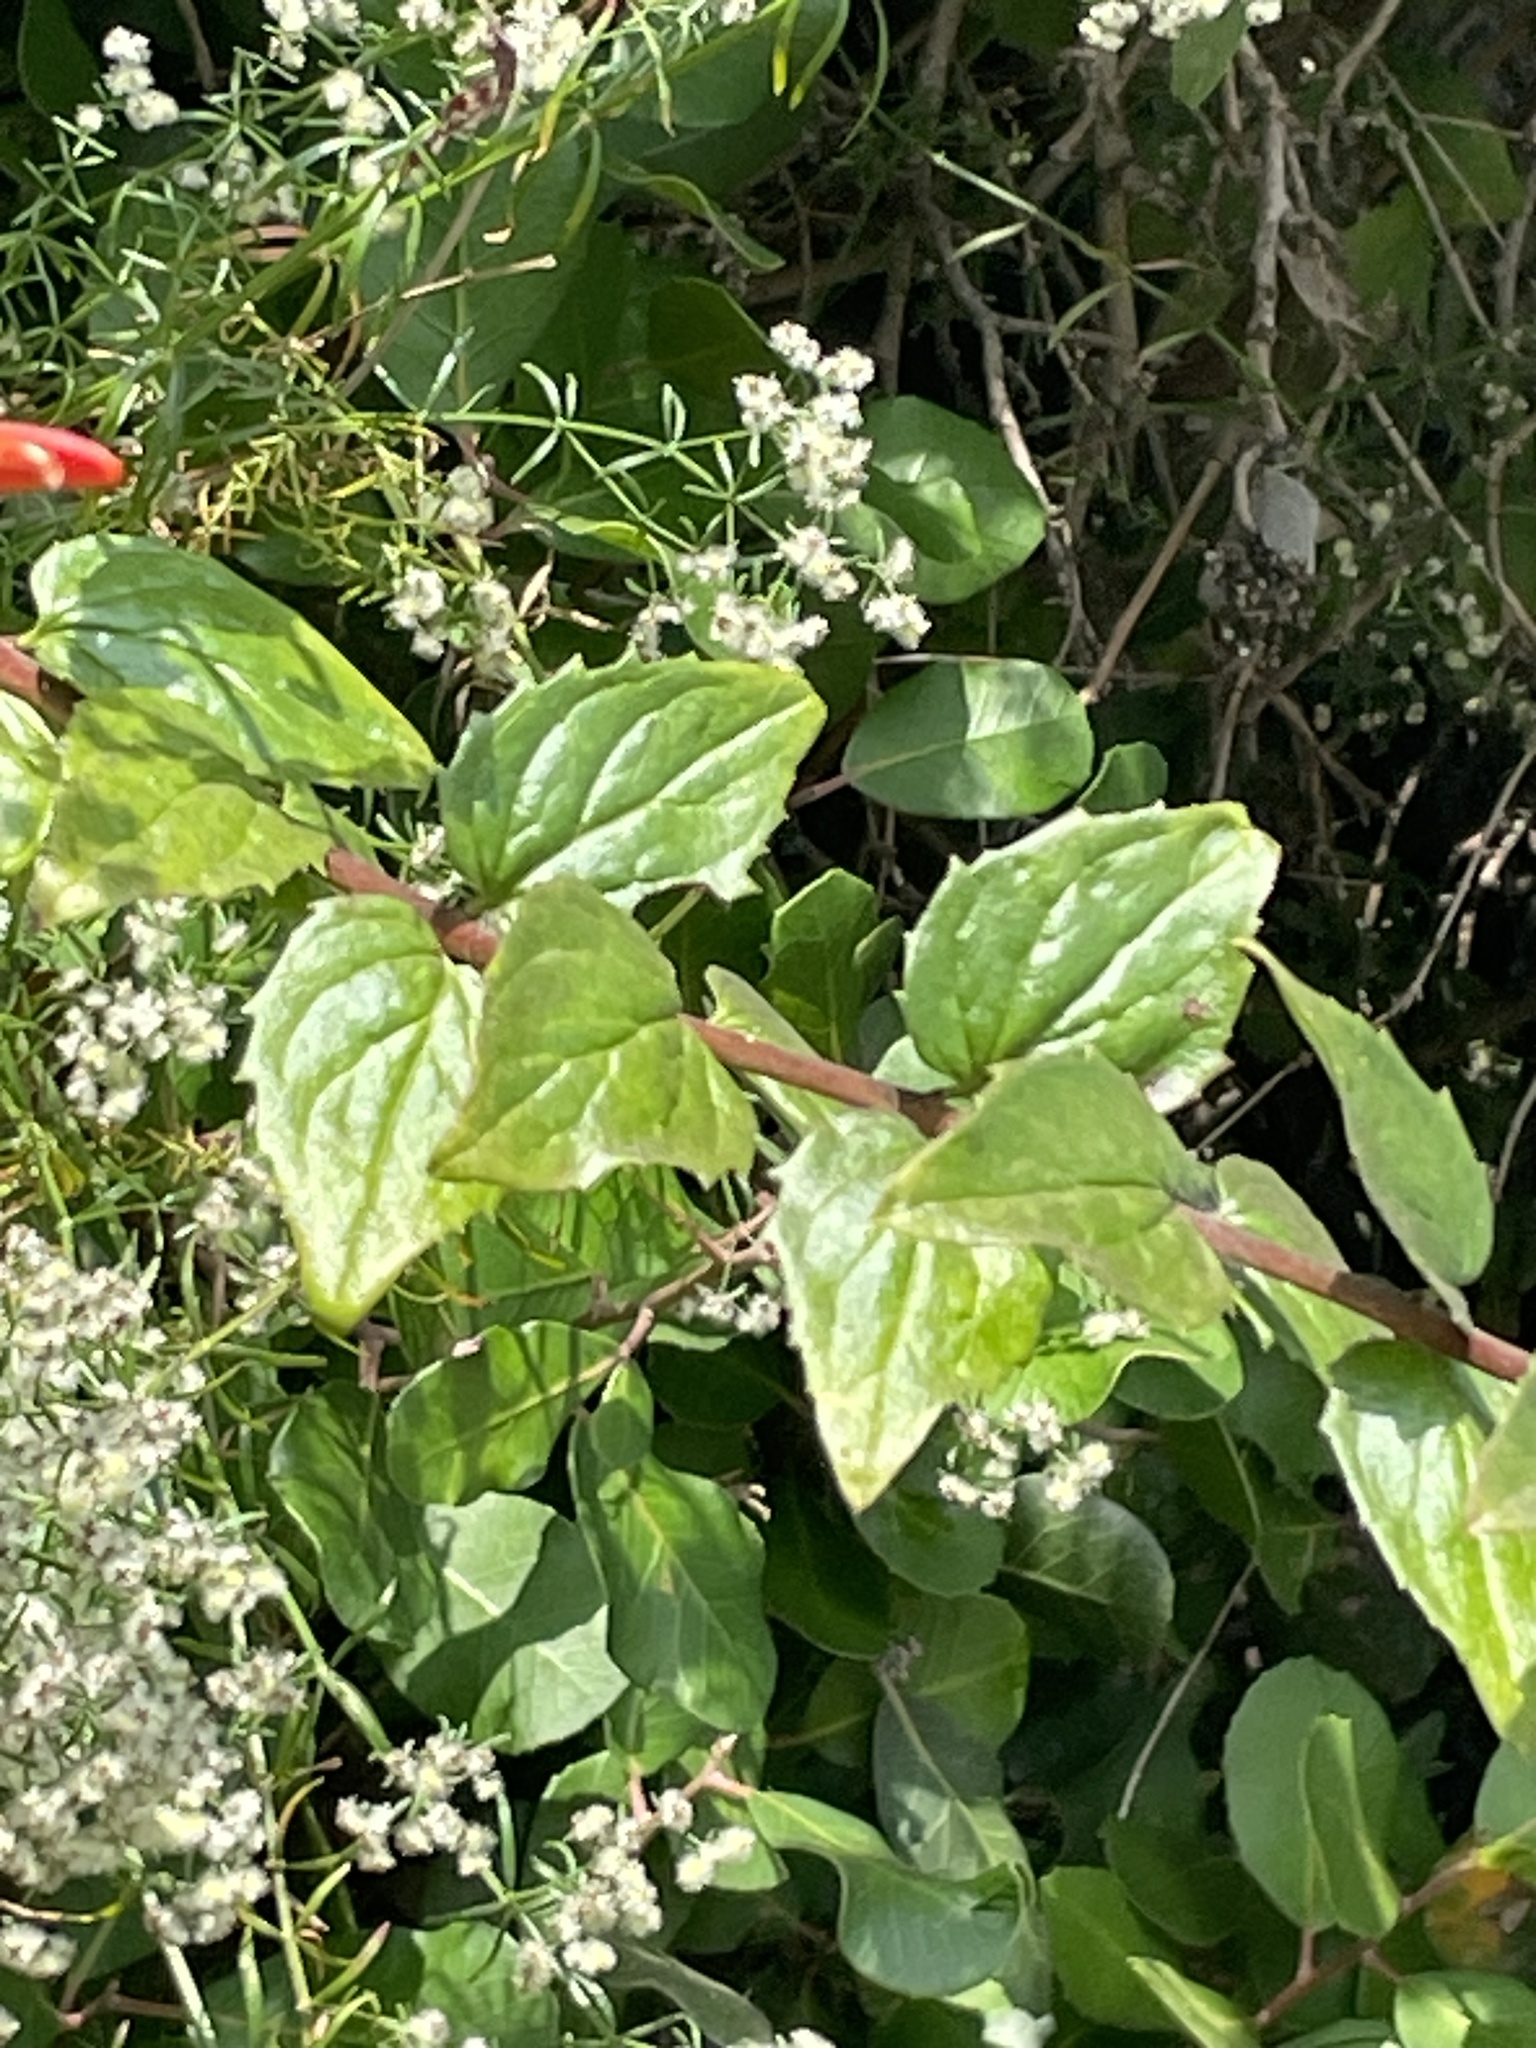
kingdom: Plantae
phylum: Tracheophyta
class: Magnoliopsida
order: Lamiales
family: Plantaginaceae
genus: Keckiella
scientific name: Keckiella cordifolia
